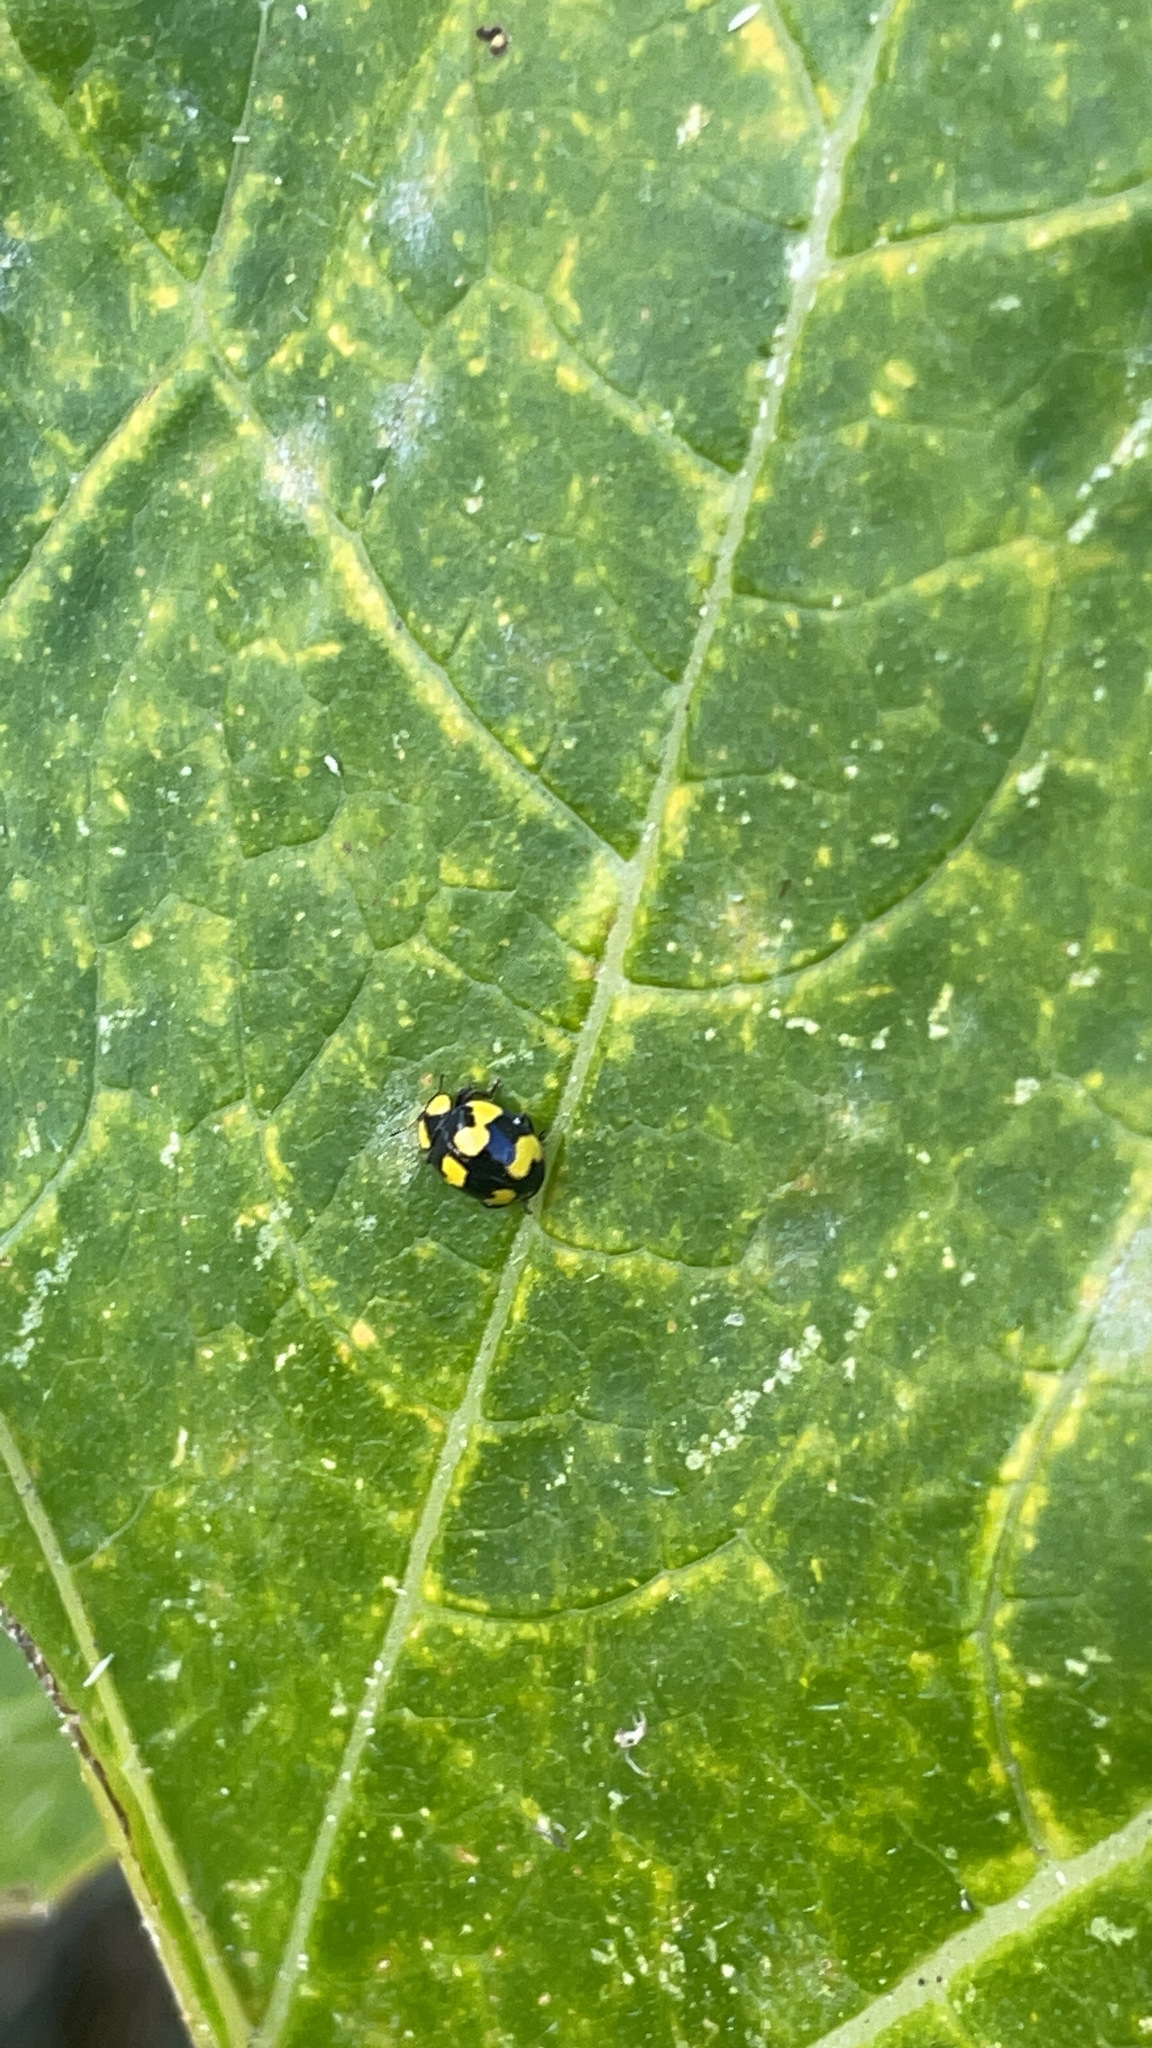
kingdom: Animalia
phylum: Arthropoda
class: Insecta
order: Coleoptera
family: Coccinellidae
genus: Illeis
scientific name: Illeis galbula
